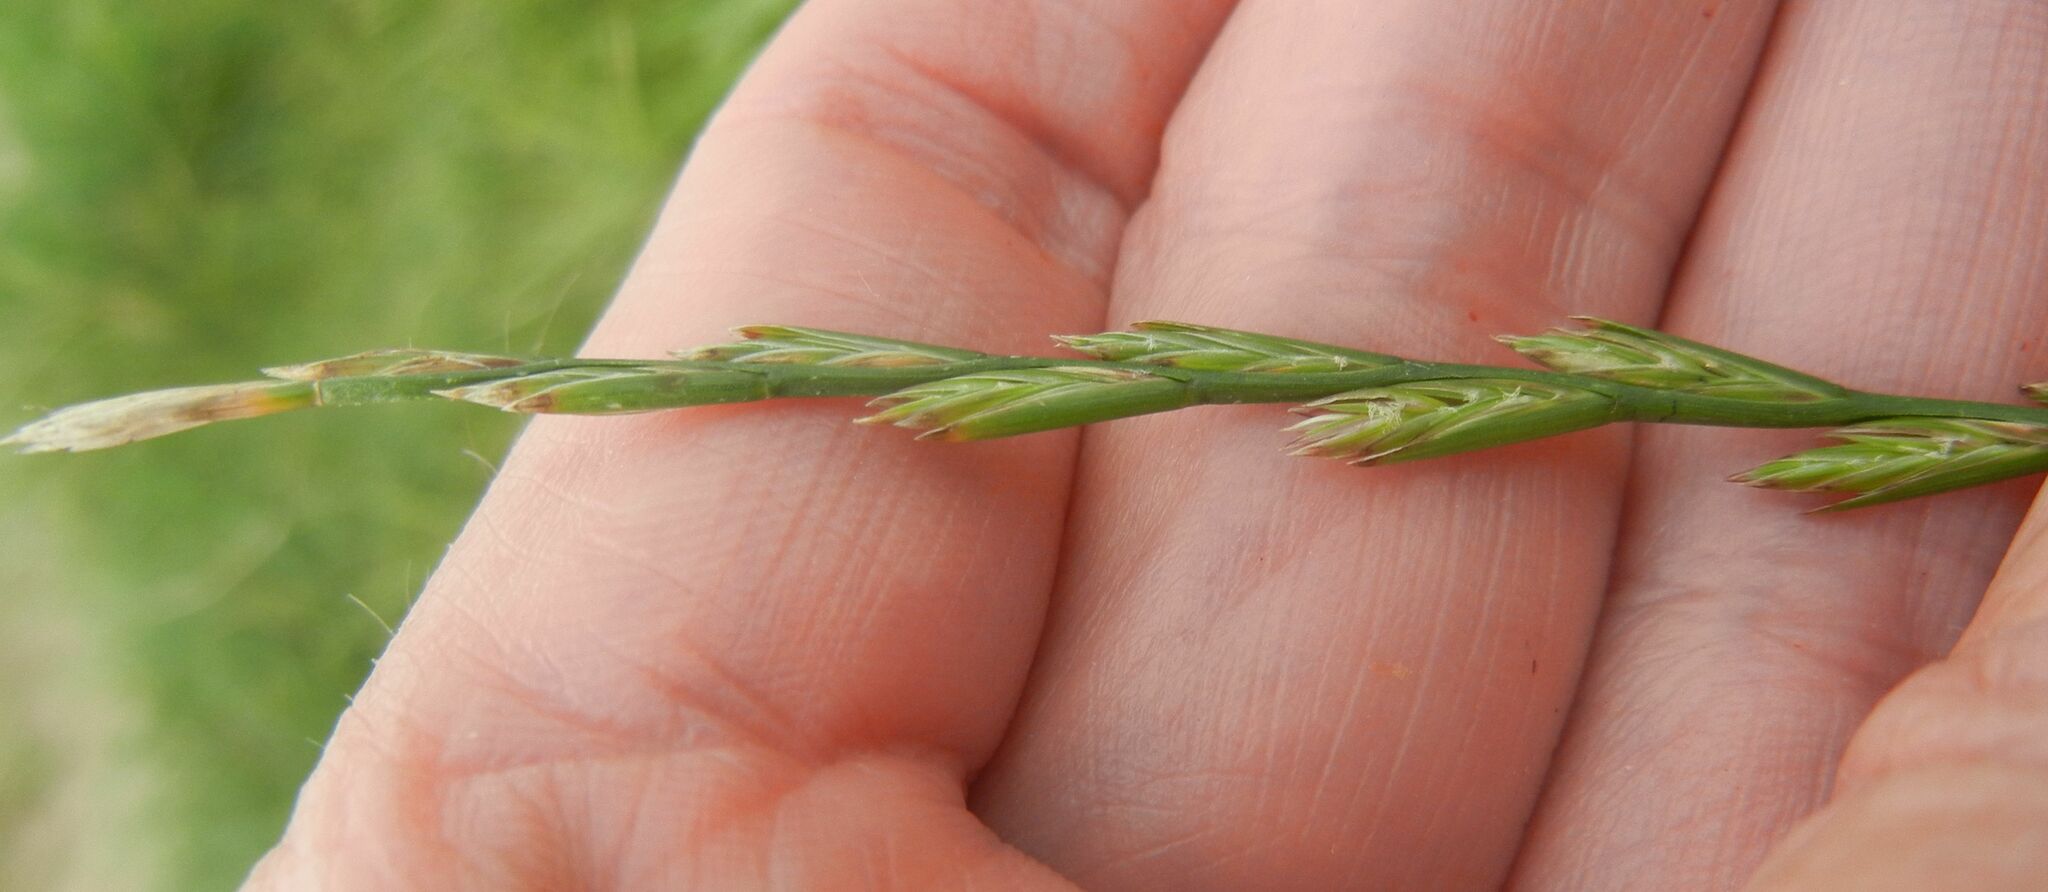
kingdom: Plantae
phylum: Tracheophyta
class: Liliopsida
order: Poales
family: Poaceae
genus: Lolium
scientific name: Lolium perenne
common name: Perennial ryegrass
